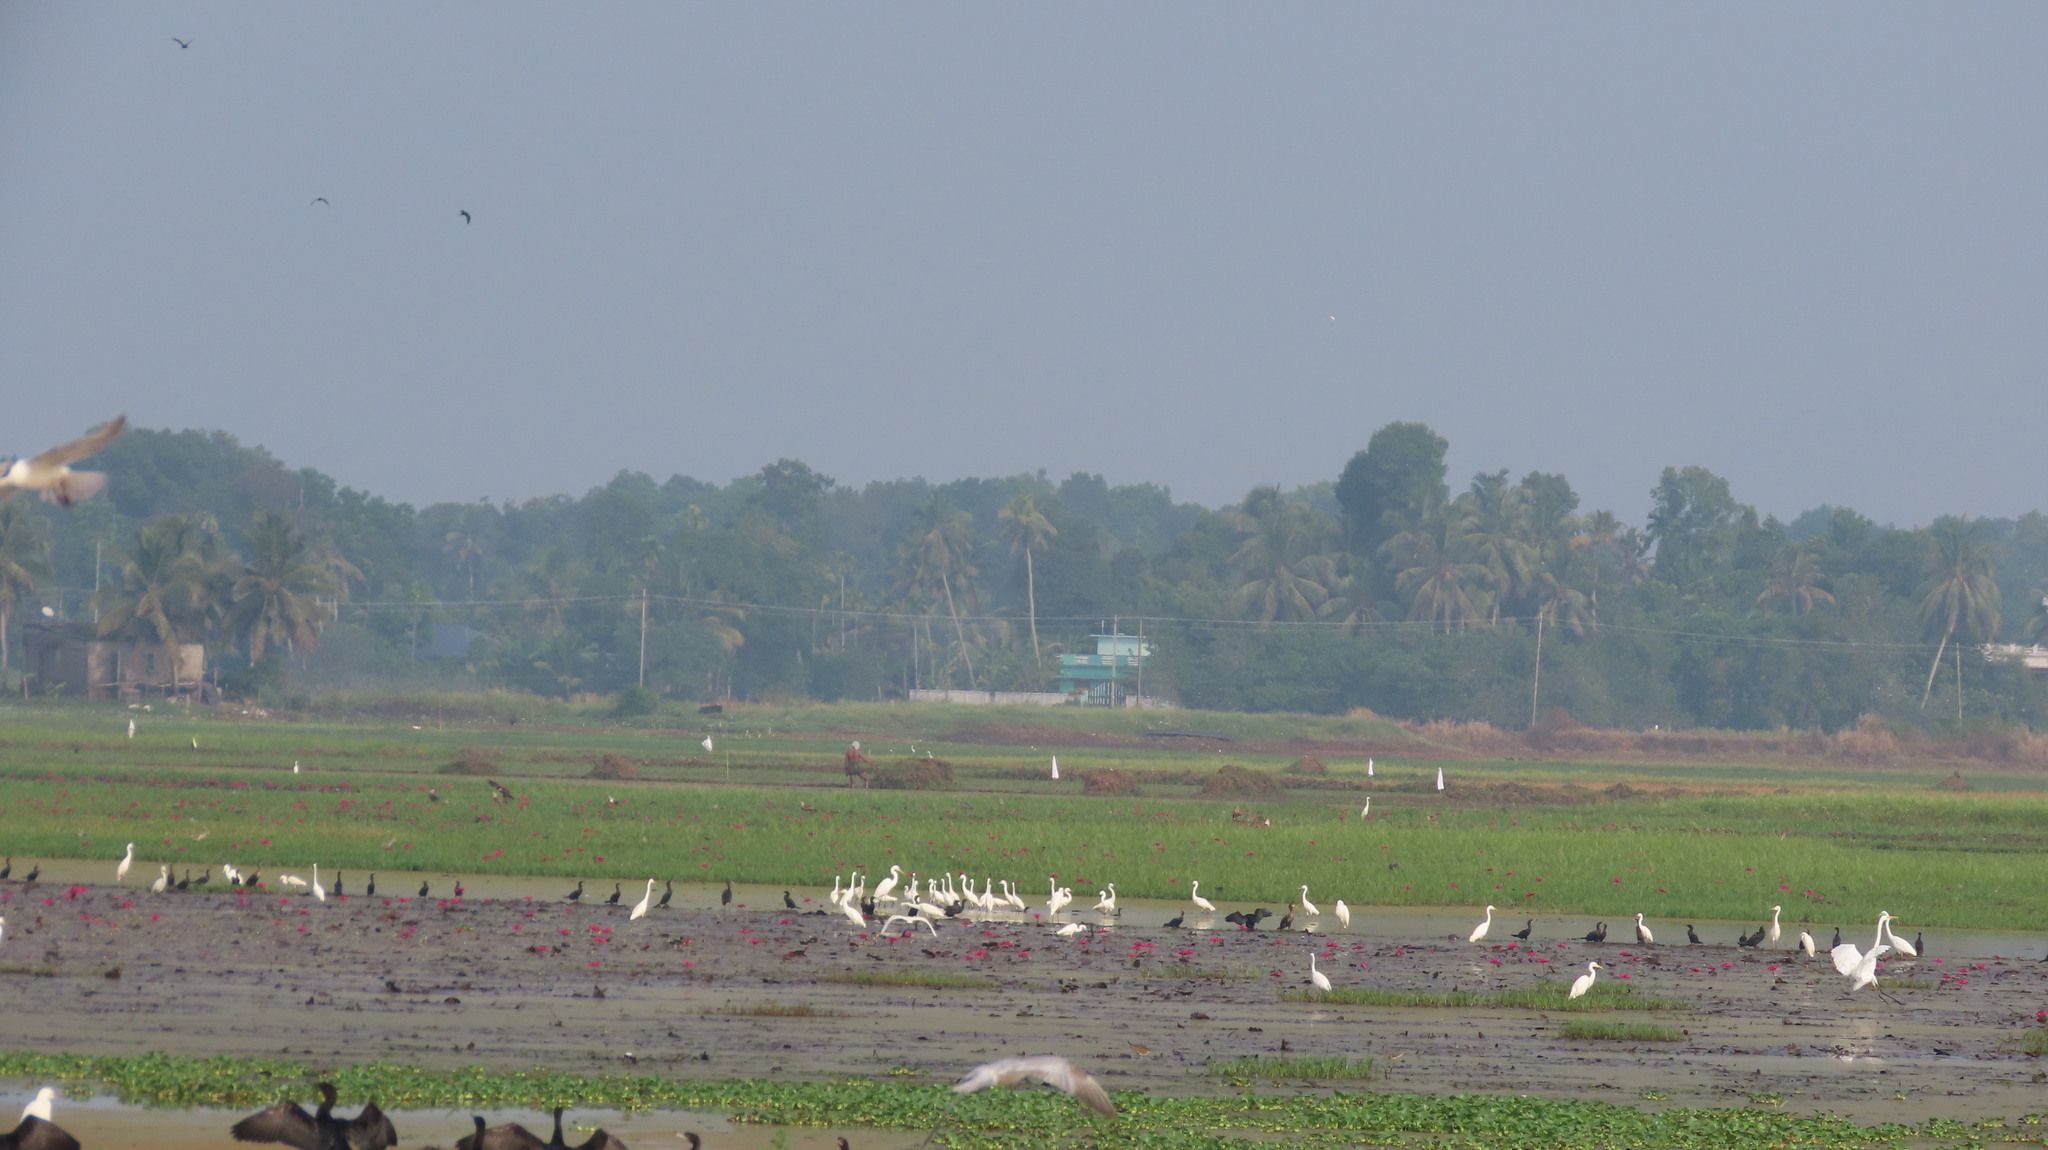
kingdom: Animalia
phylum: Chordata
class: Aves
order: Suliformes
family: Phalacrocoracidae
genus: Microcarbo
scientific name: Microcarbo niger
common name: Little cormorant
